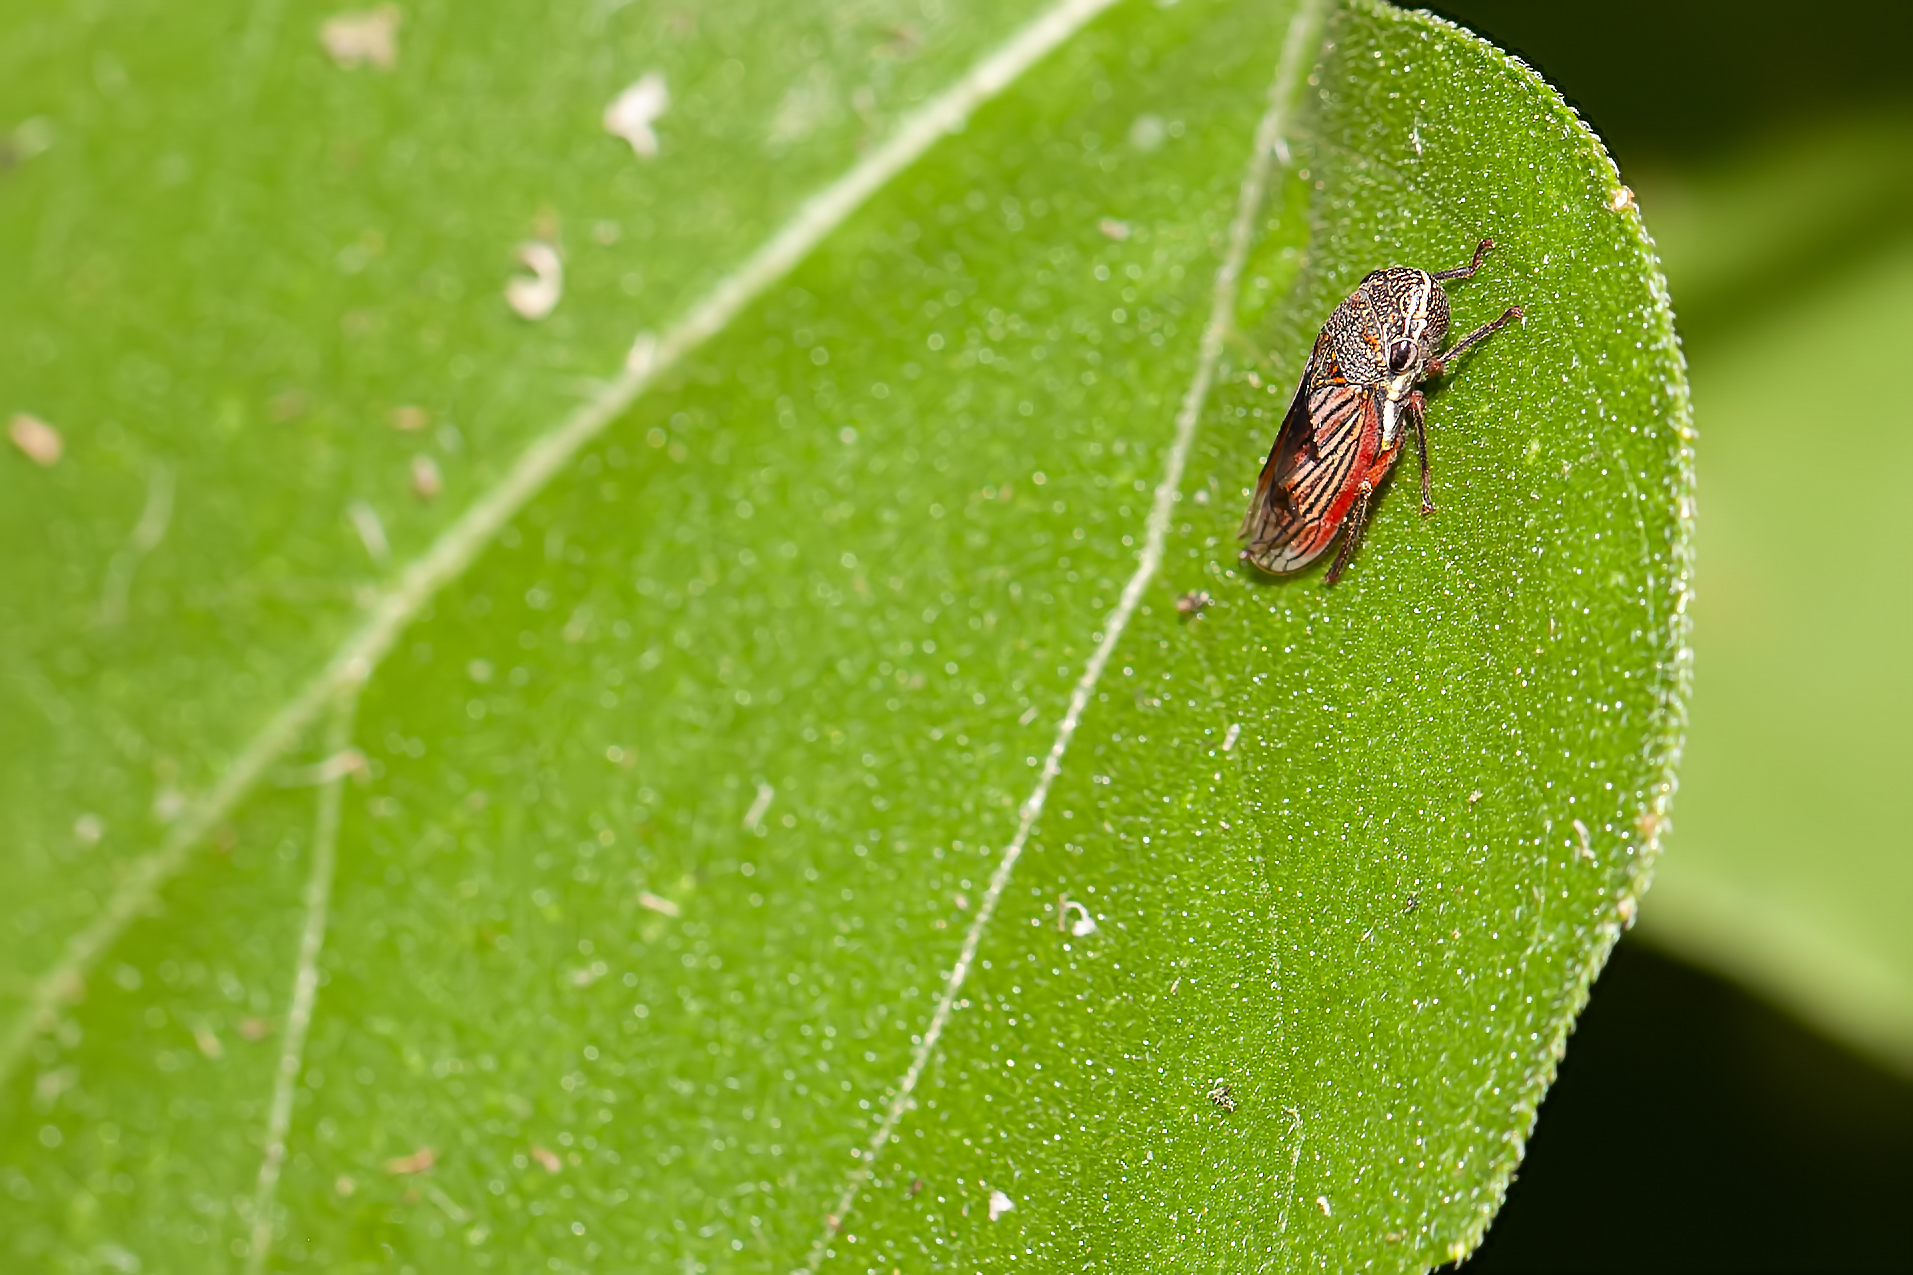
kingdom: Animalia
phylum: Arthropoda
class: Insecta
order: Hemiptera
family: Cicadellidae
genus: Cuerna
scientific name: Cuerna costalis
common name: Lateral-lined sharpshooter
